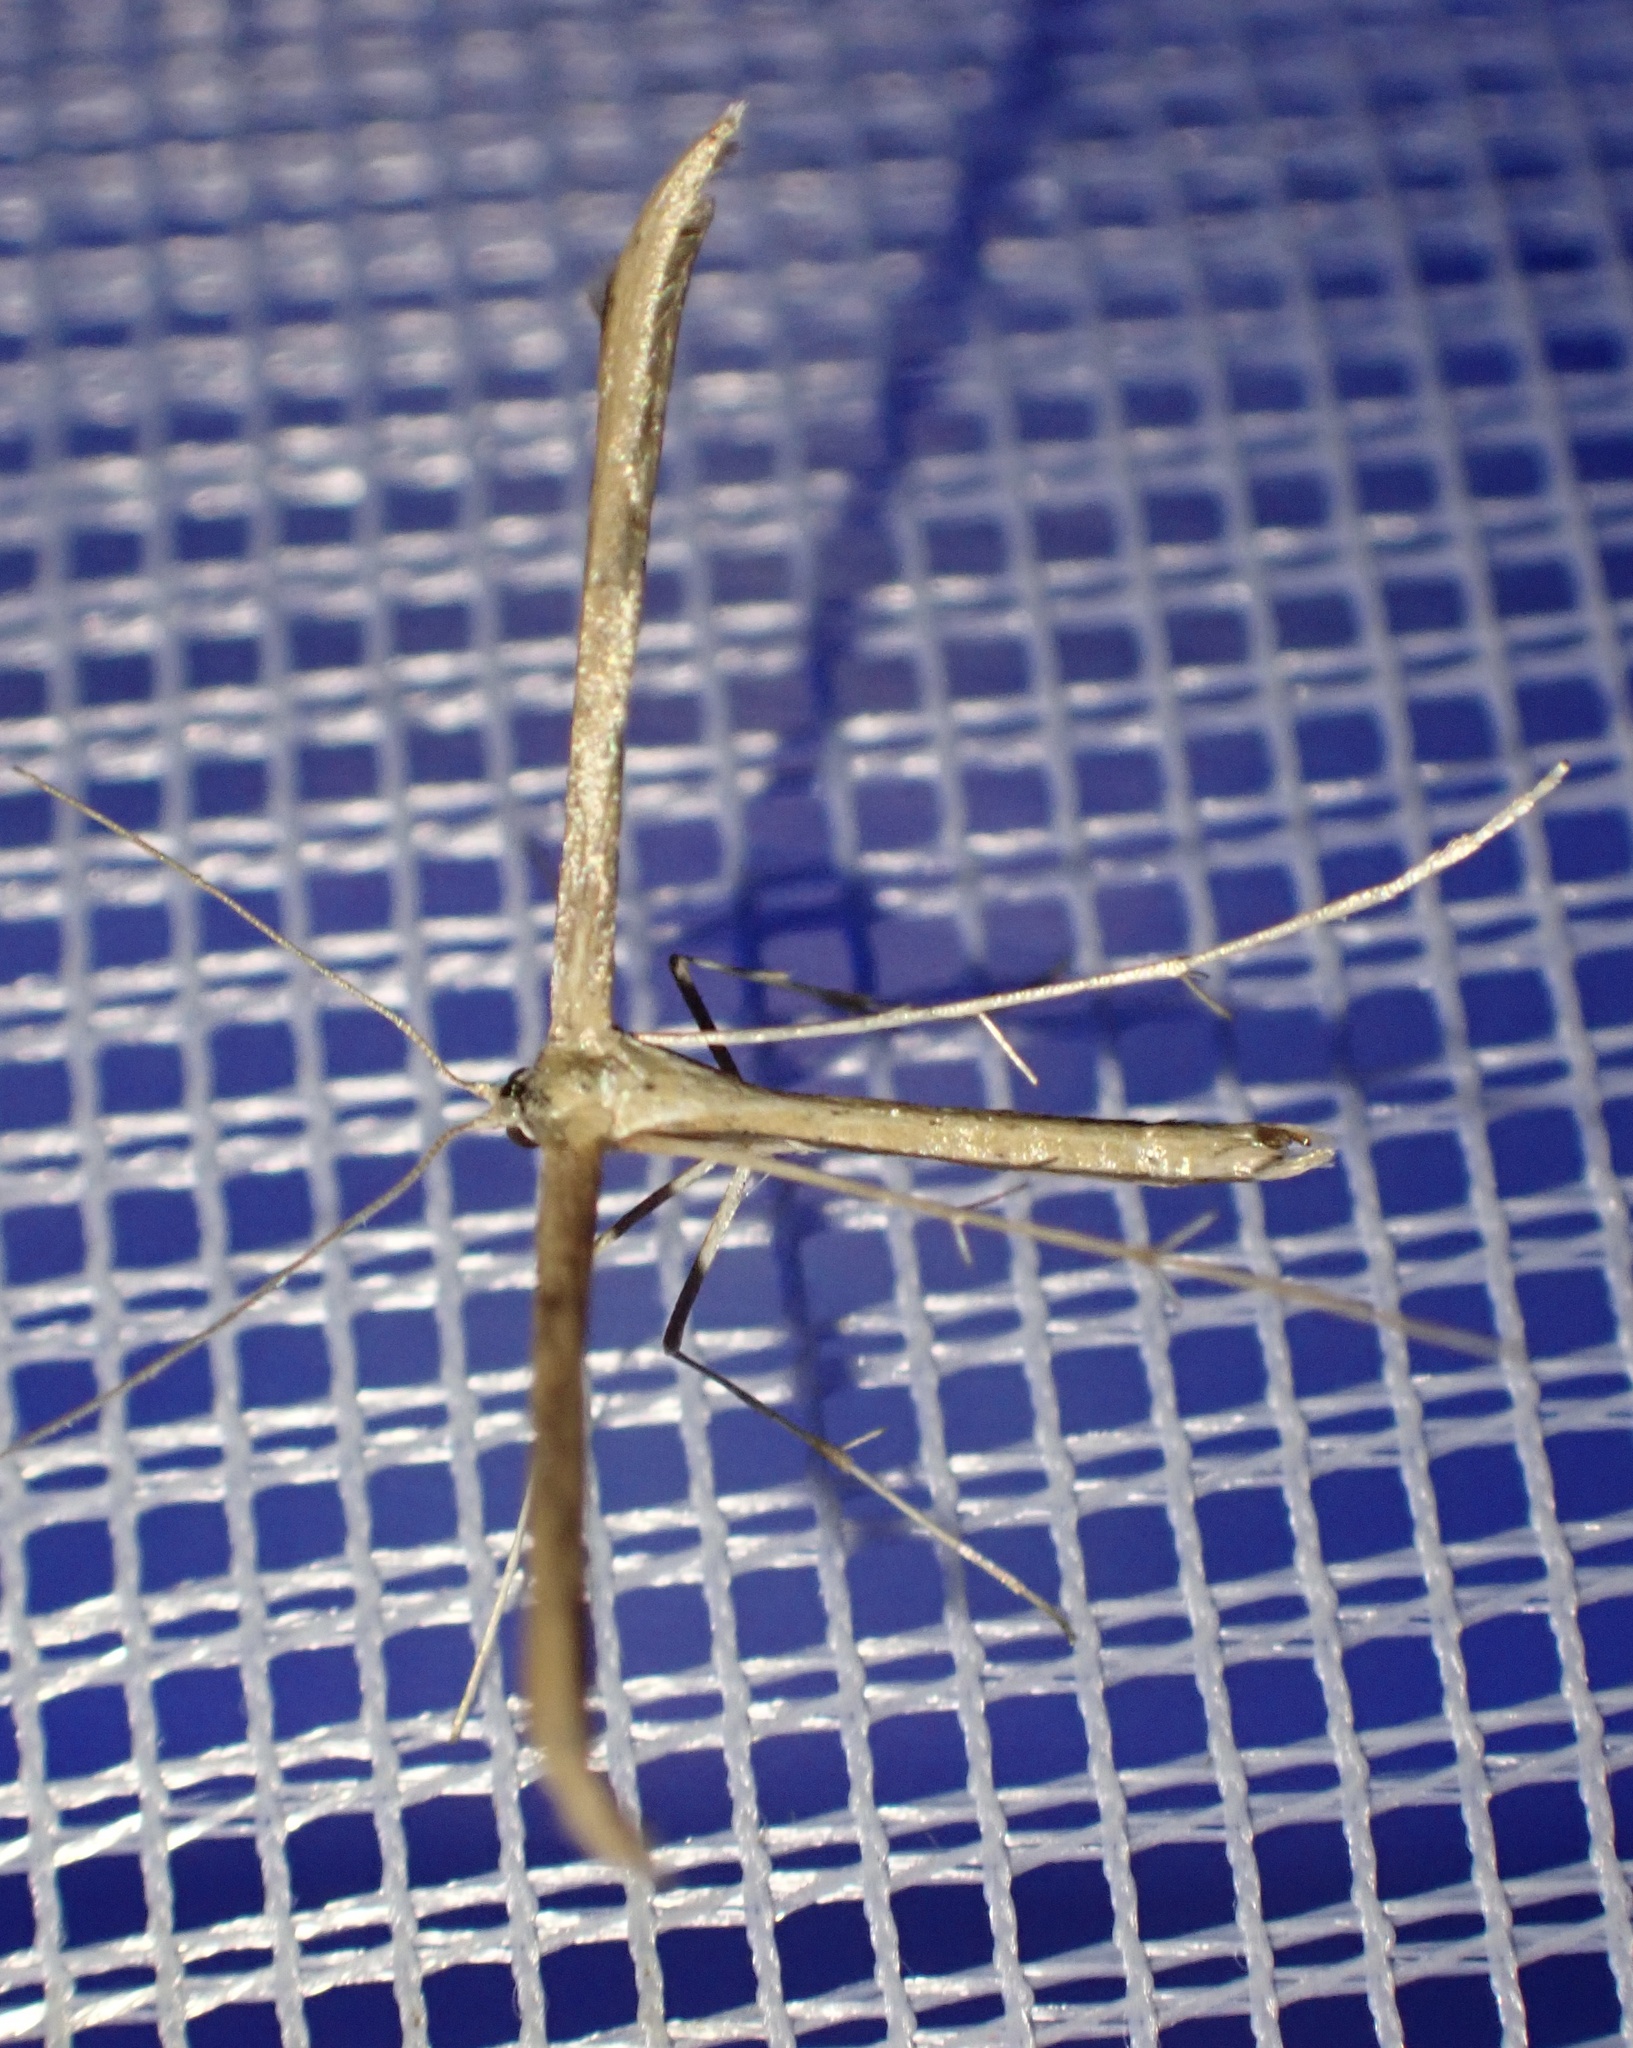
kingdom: Animalia
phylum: Arthropoda
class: Insecta
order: Lepidoptera
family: Pterophoridae
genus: Emmelina
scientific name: Emmelina monodactyla
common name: Common plume
